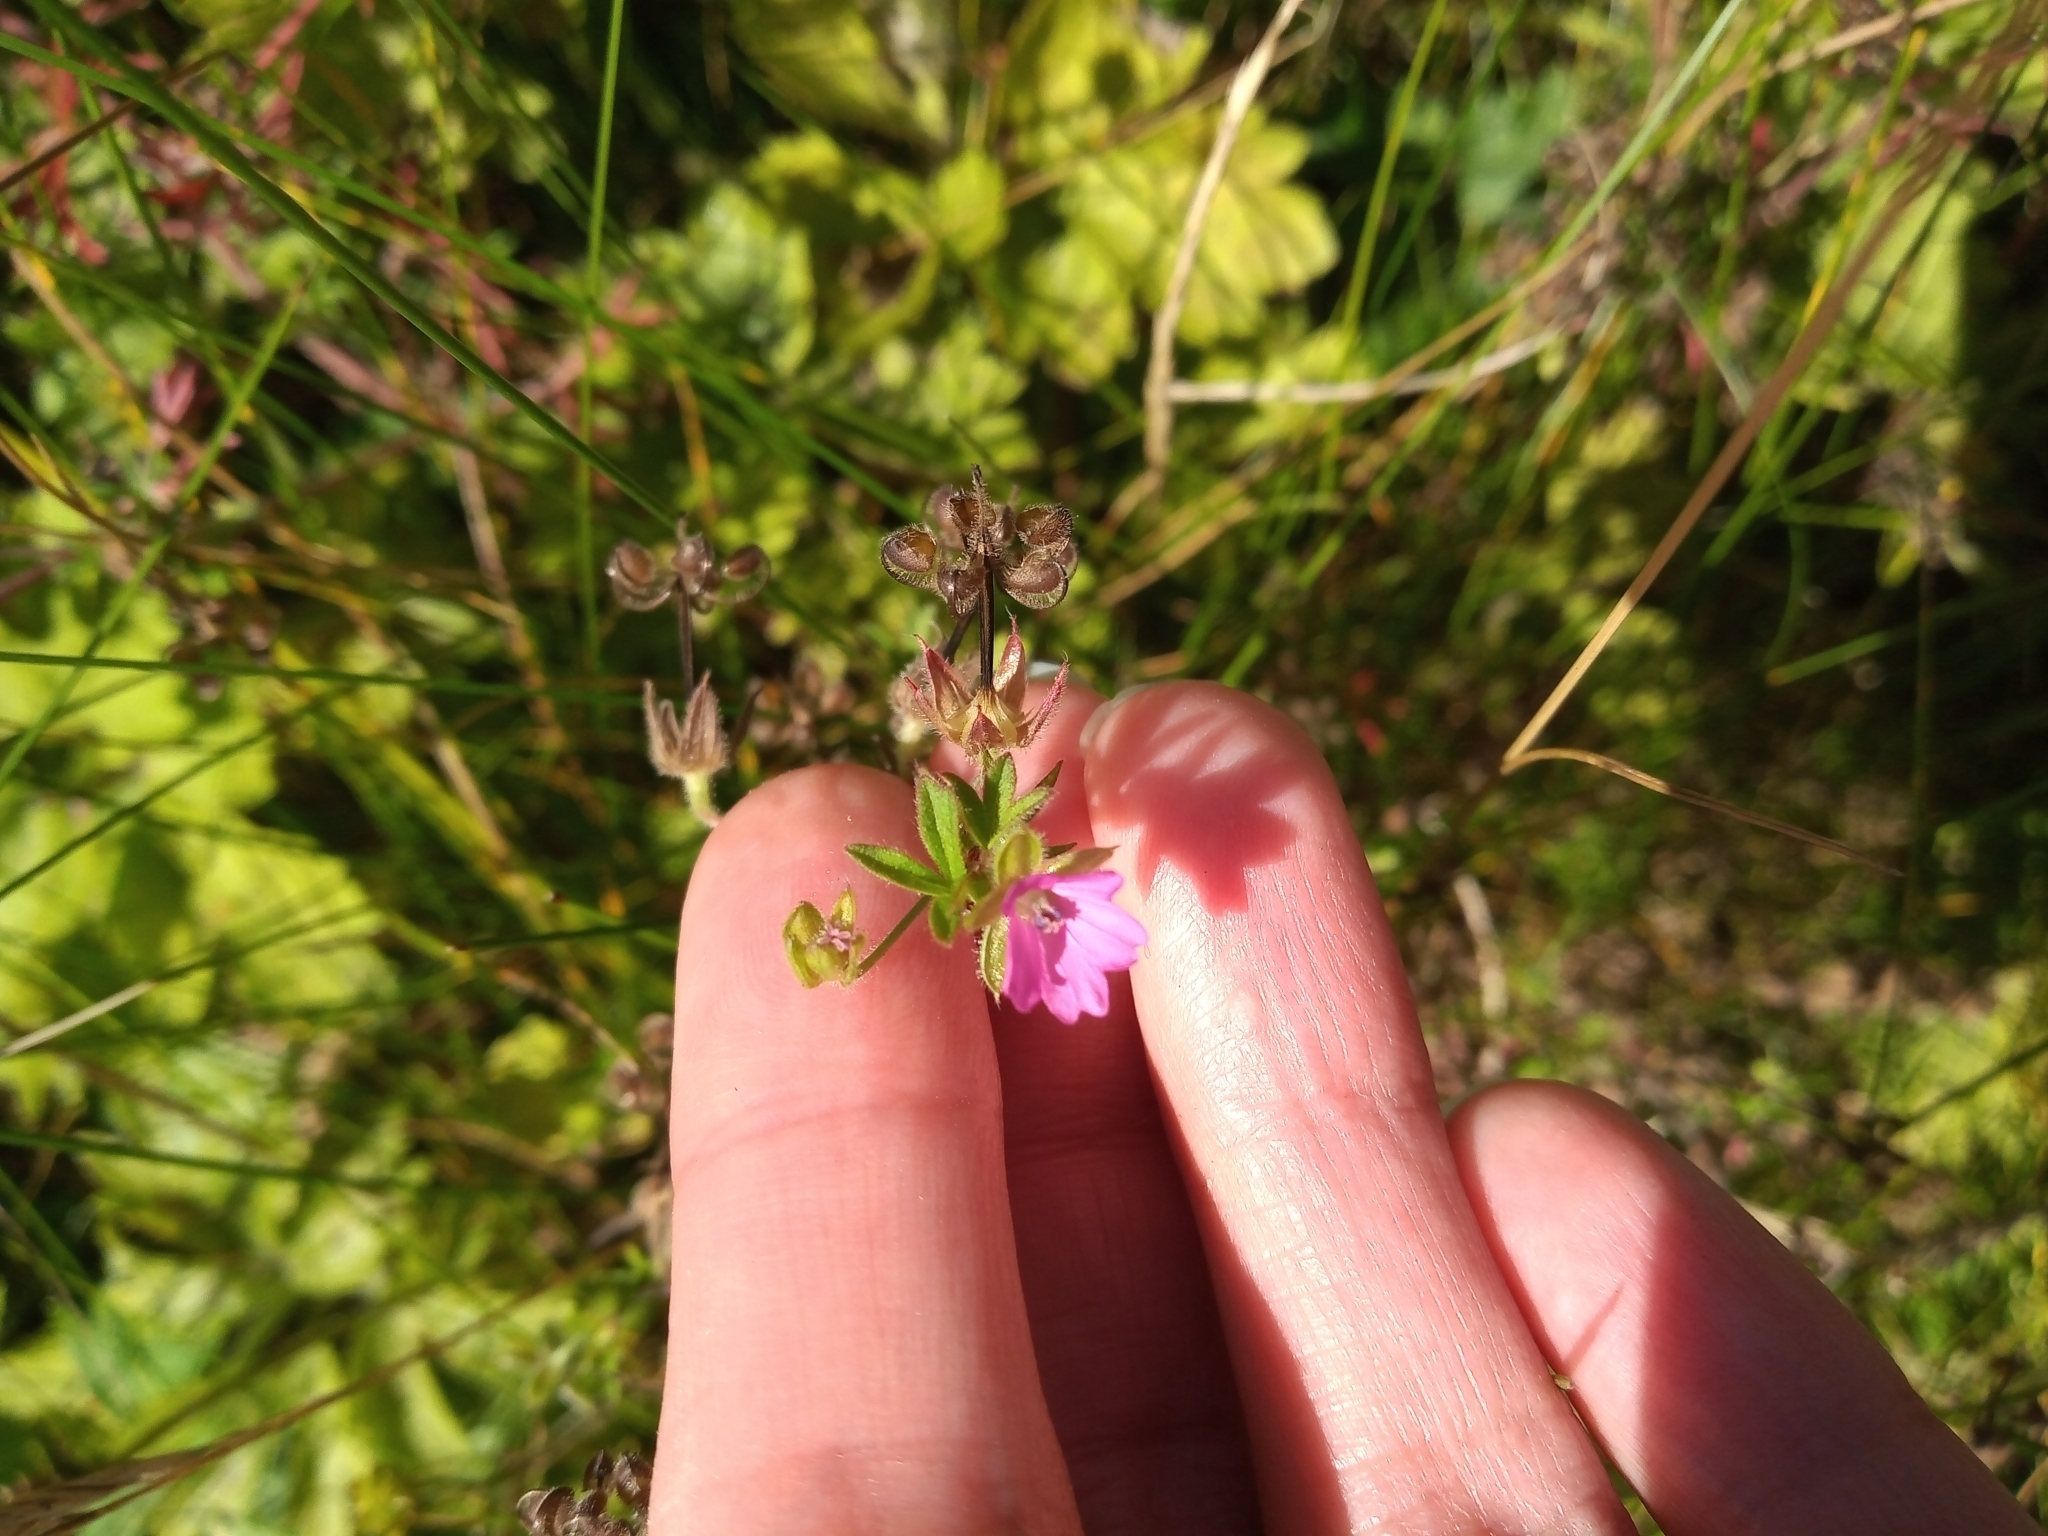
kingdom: Plantae
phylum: Tracheophyta
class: Magnoliopsida
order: Geraniales
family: Geraniaceae
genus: Geranium
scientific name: Geranium dissectum
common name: Cut-leaved crane's-bill
